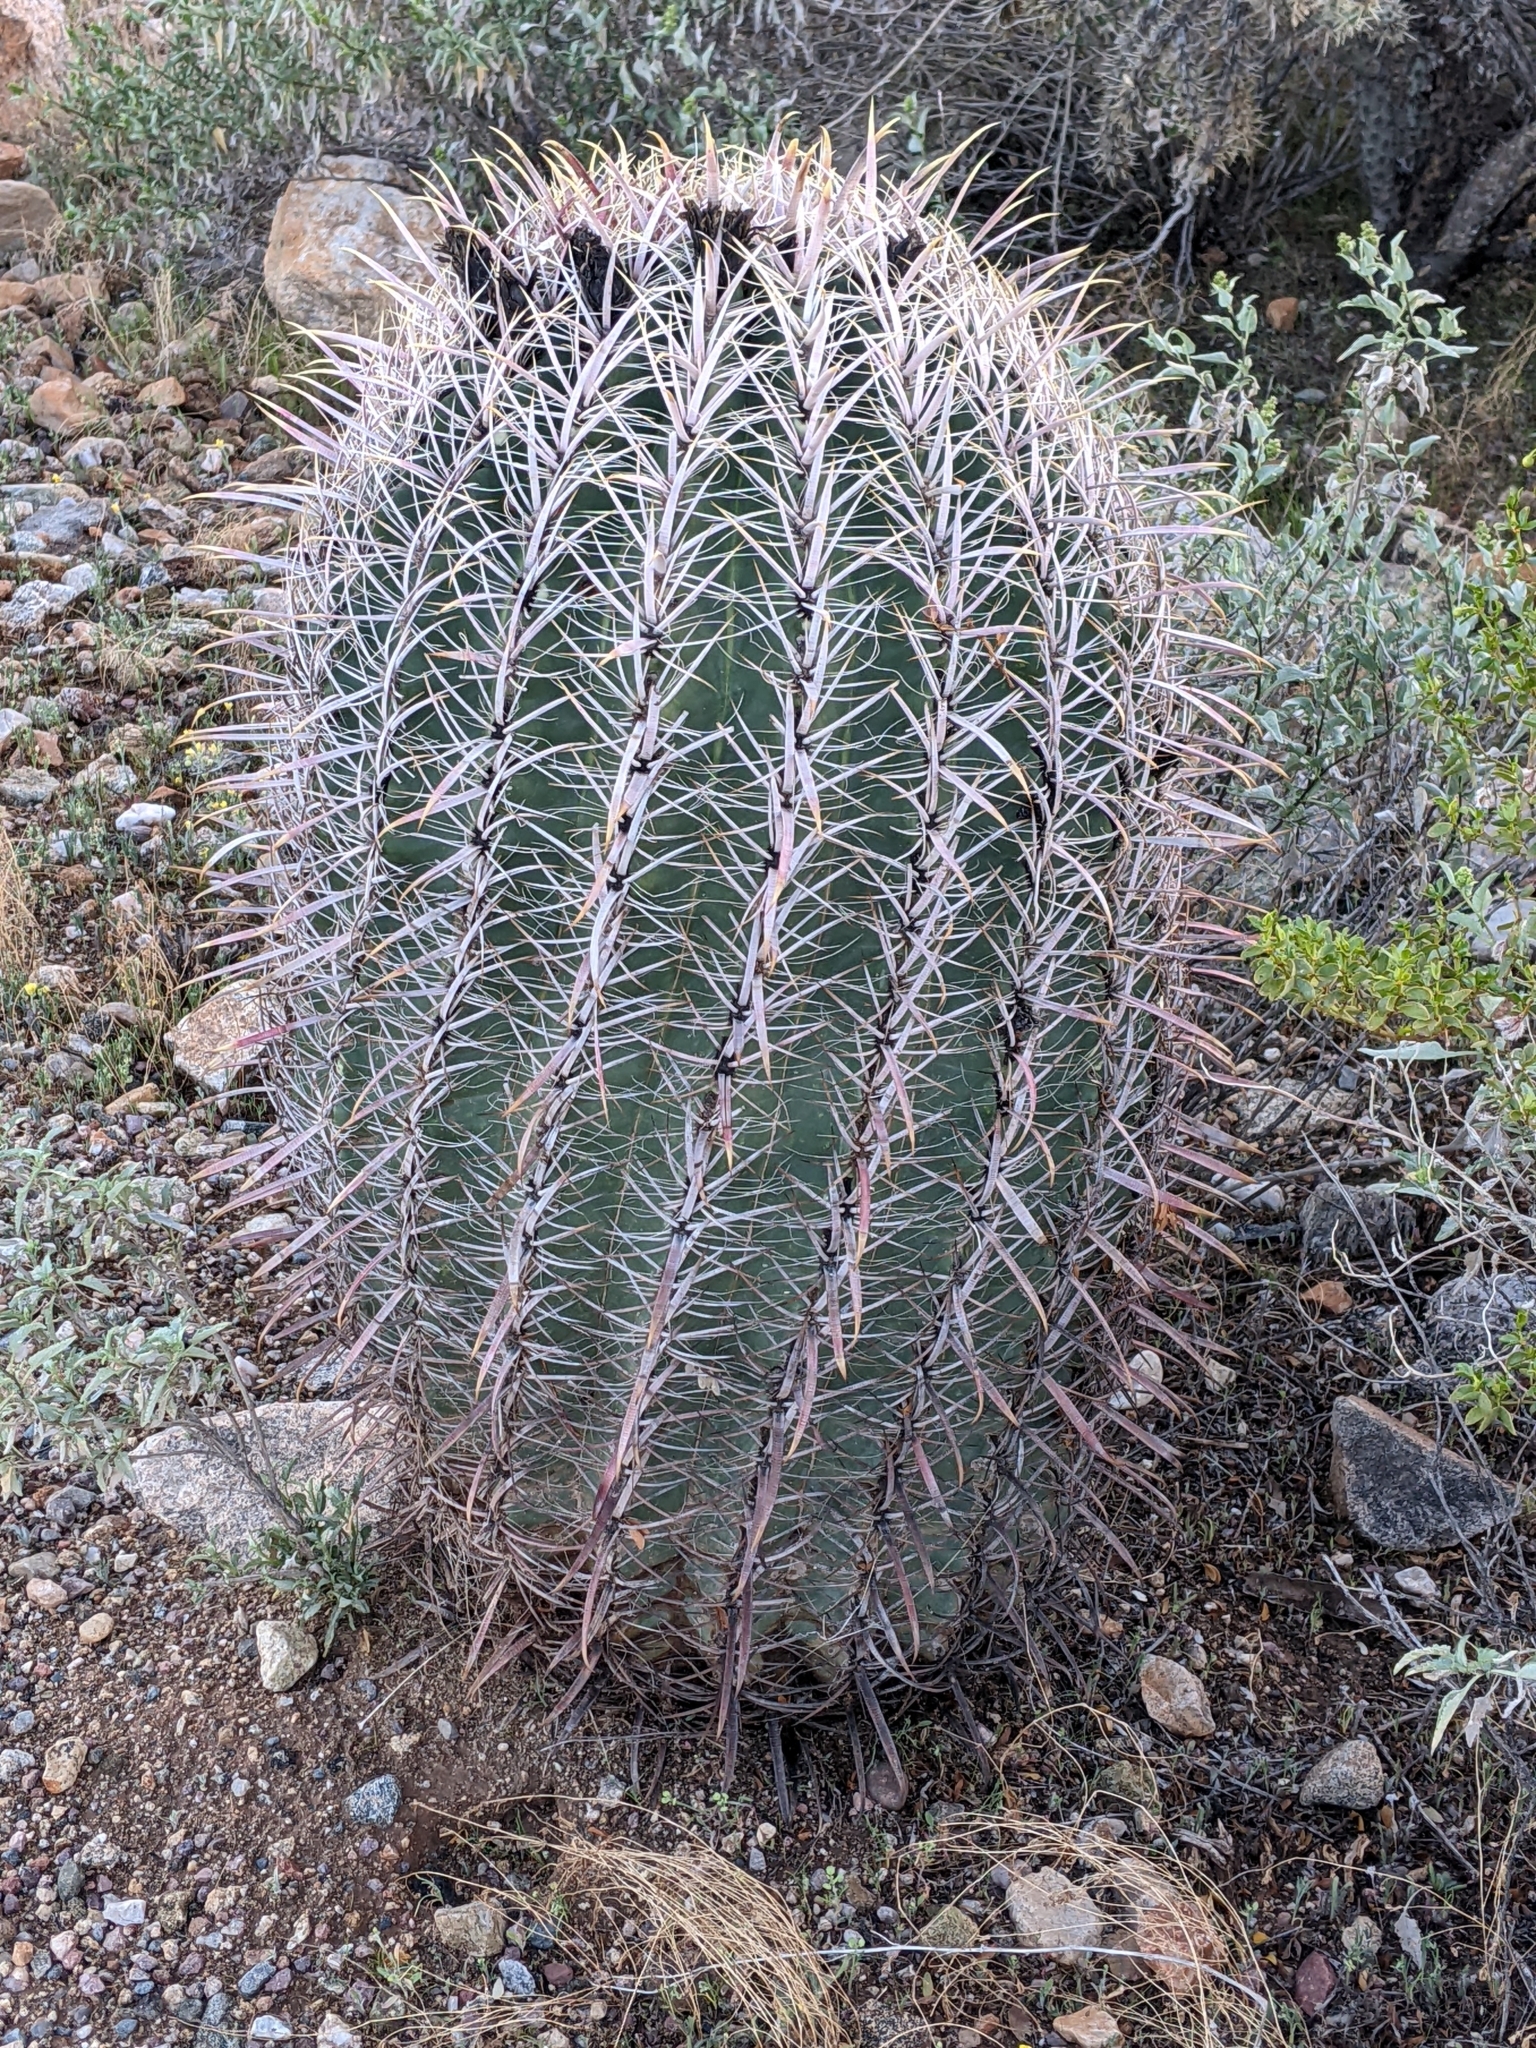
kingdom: Plantae
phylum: Tracheophyta
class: Magnoliopsida
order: Caryophyllales
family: Cactaceae
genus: Ferocactus
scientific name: Ferocactus cylindraceus
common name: California barrel cactus
